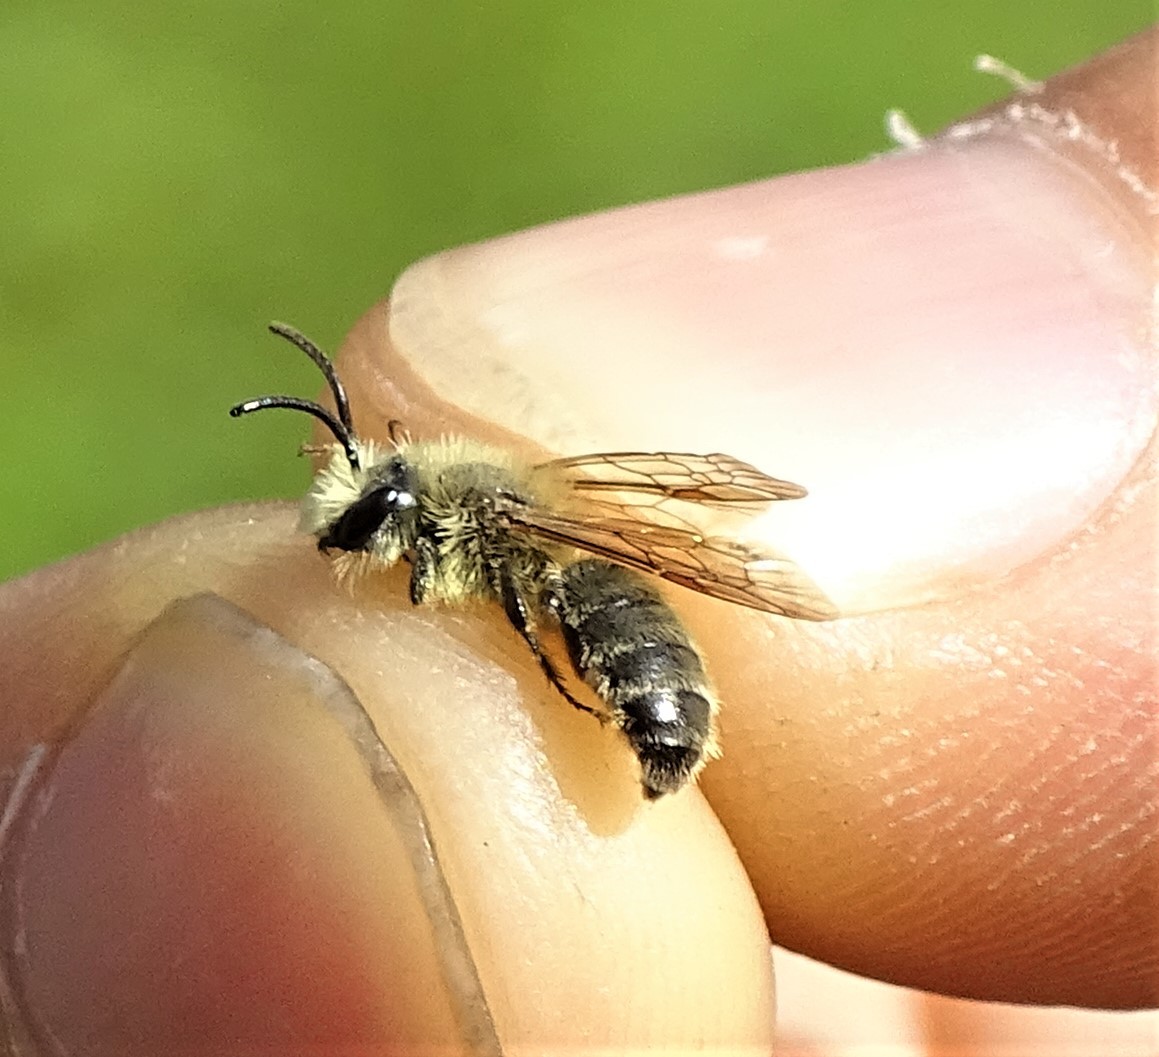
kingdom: Animalia
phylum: Arthropoda
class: Insecta
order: Hymenoptera
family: Andrenidae
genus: Andrena
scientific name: Andrena hirticincta
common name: Hairy-banded mining bee
